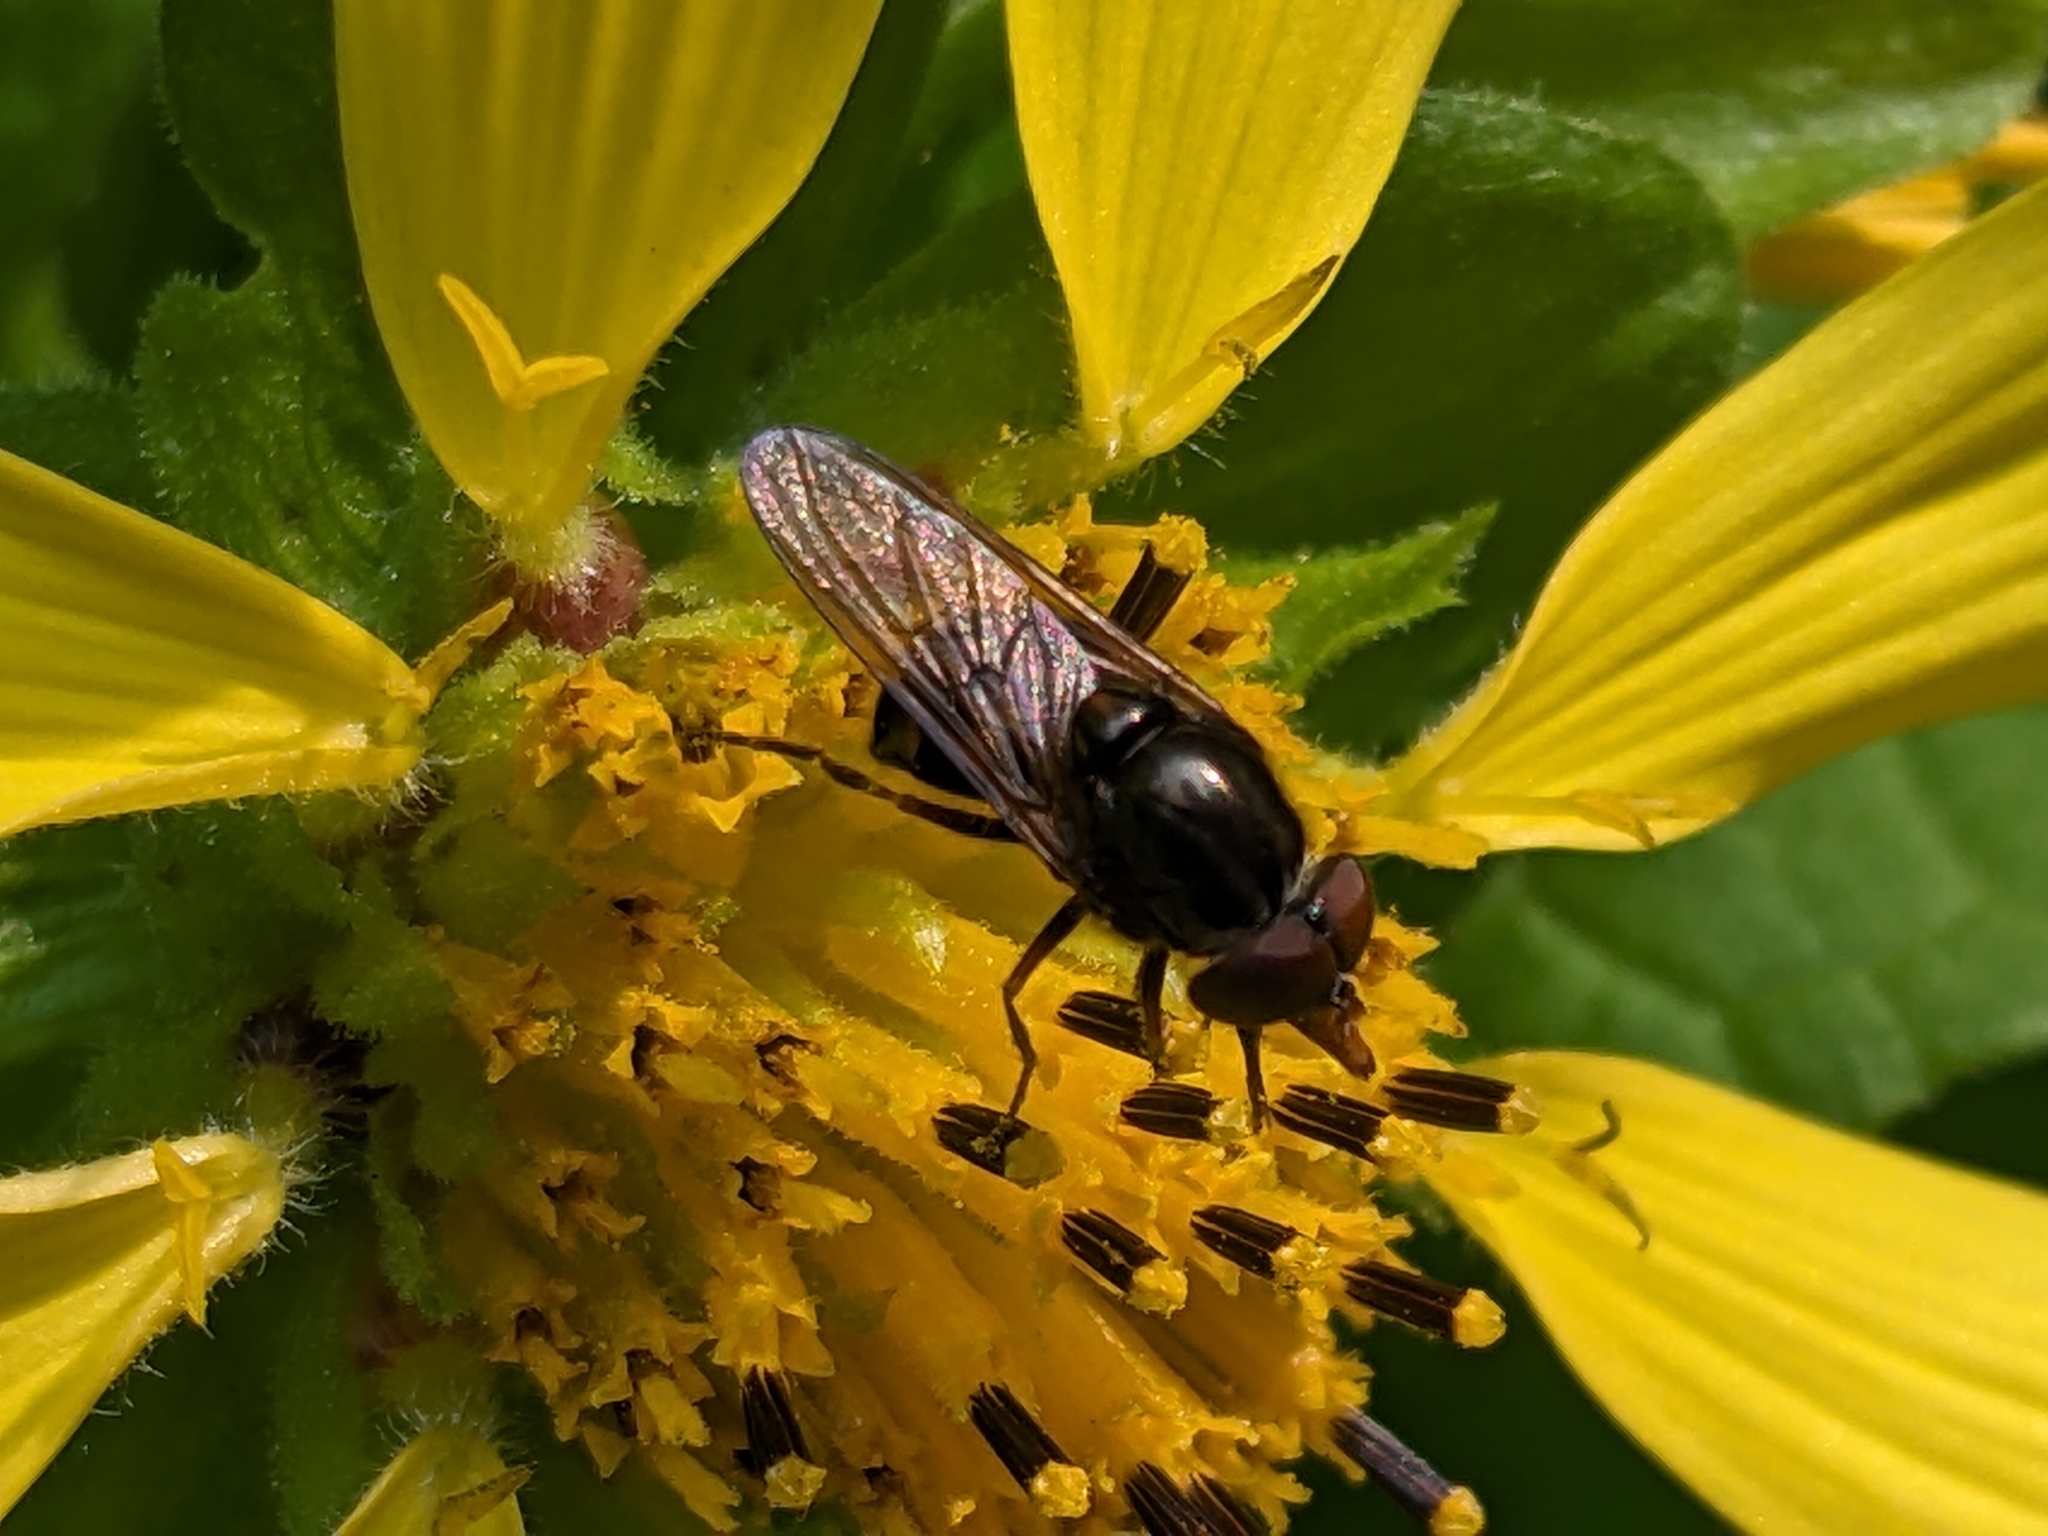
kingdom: Animalia
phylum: Arthropoda
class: Insecta
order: Diptera
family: Syrphidae
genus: Rhingia
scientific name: Rhingia nasica
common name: American snout fly
